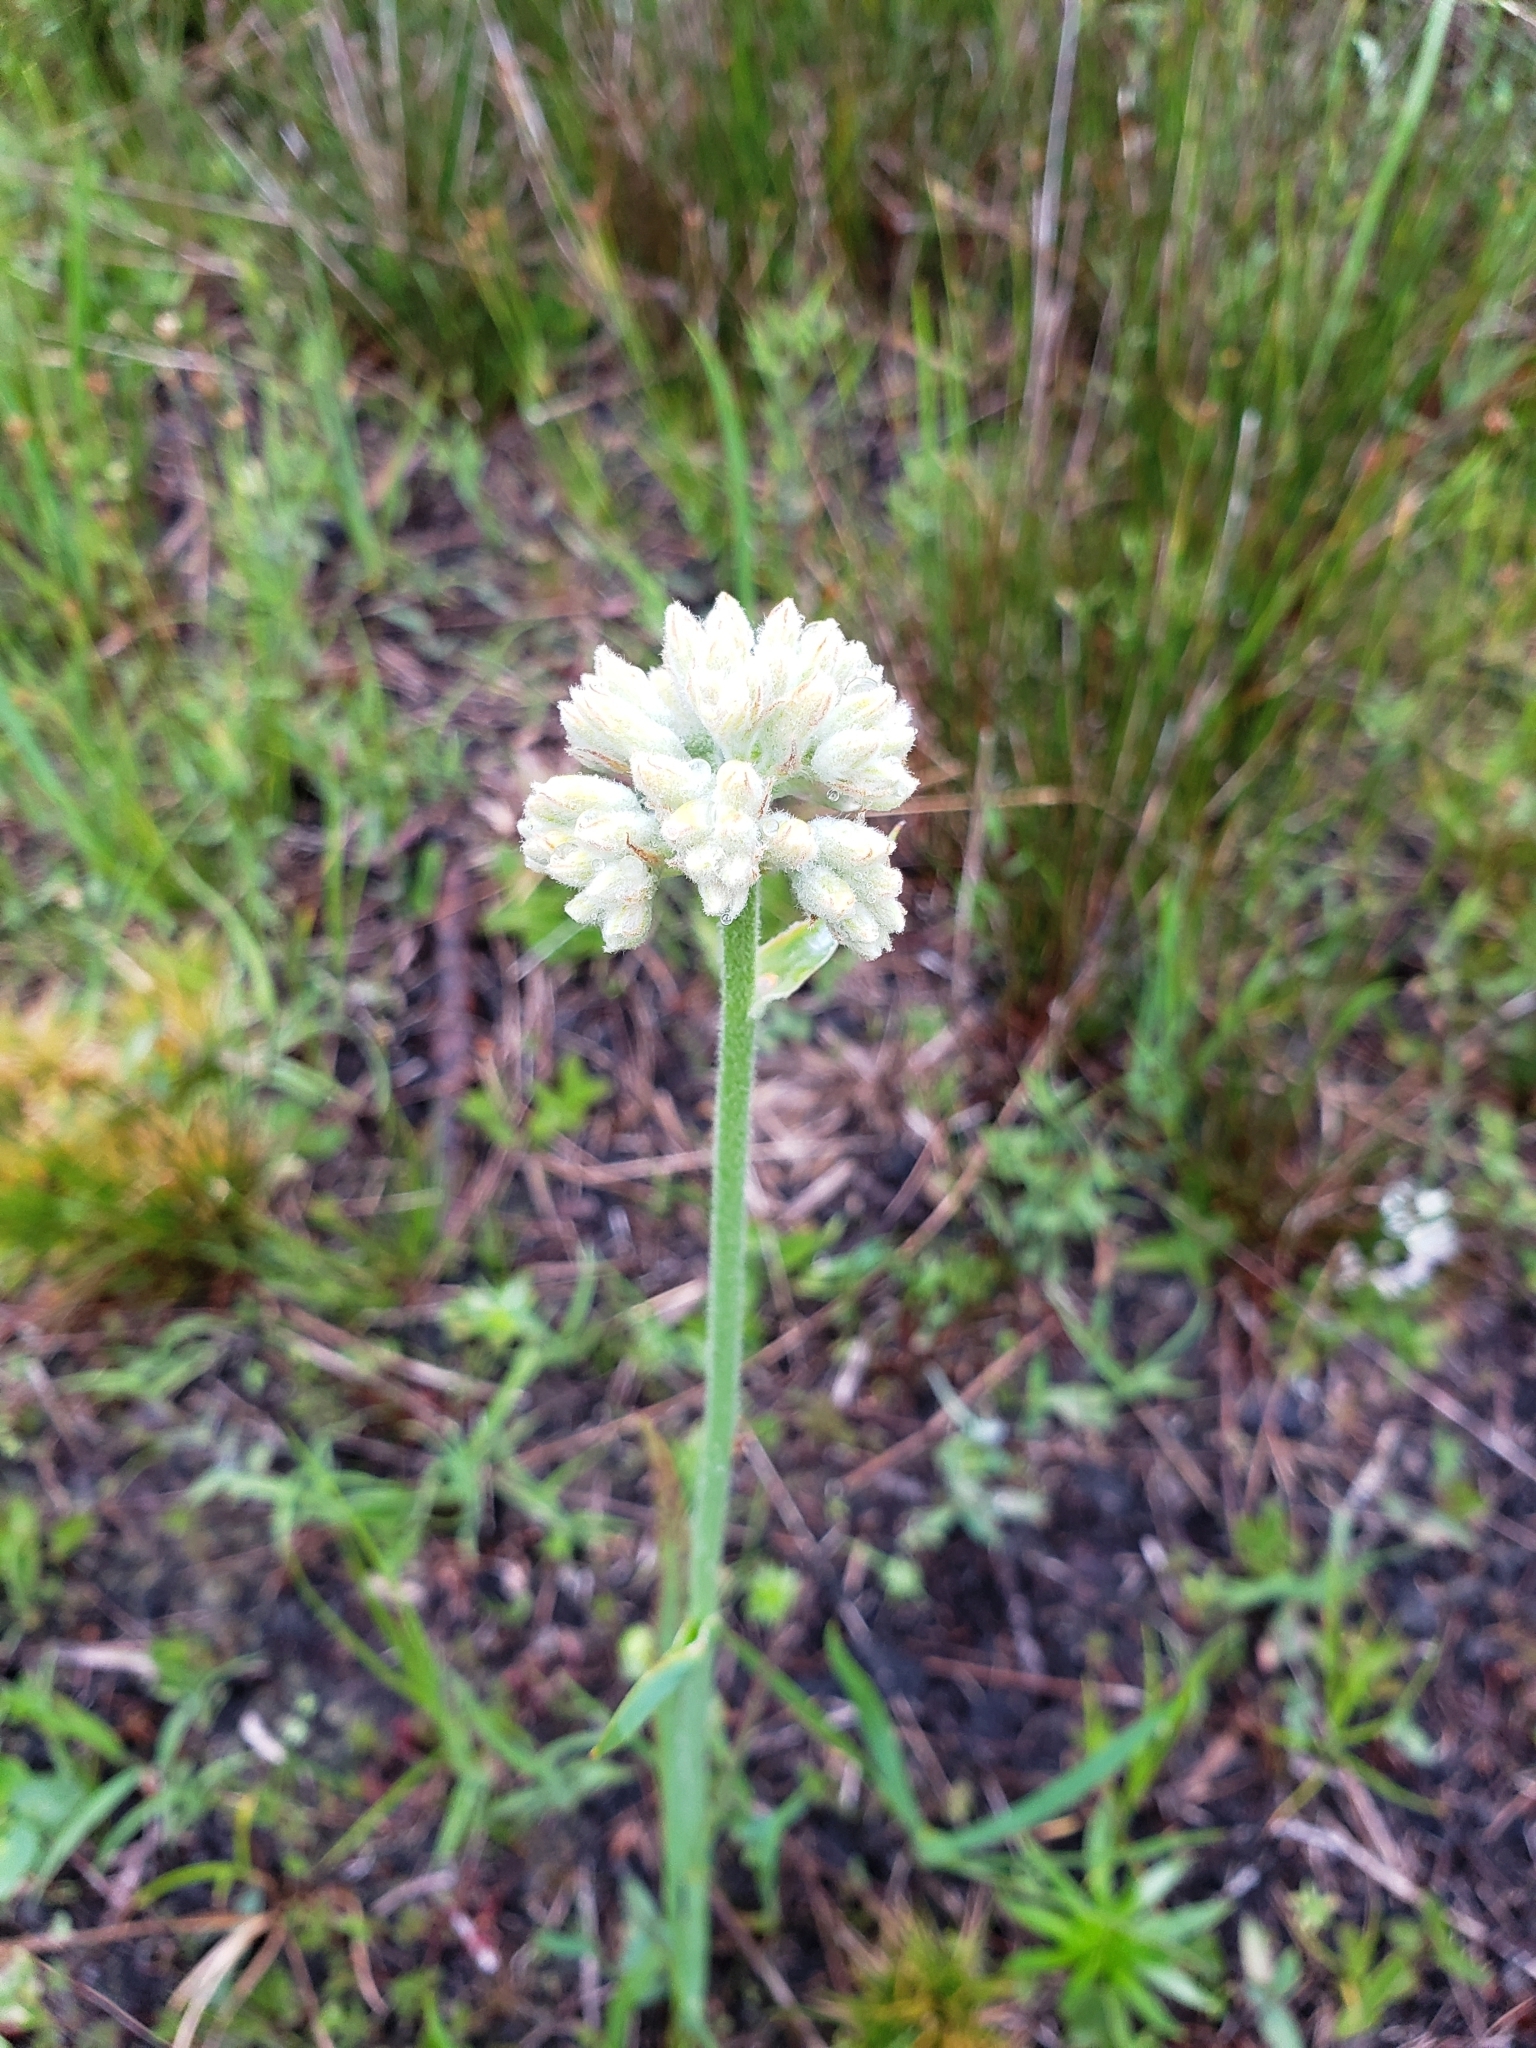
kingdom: Plantae
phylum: Tracheophyta
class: Liliopsida
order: Commelinales
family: Haemodoraceae
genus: Lachnanthes
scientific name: Lachnanthes caroliana
